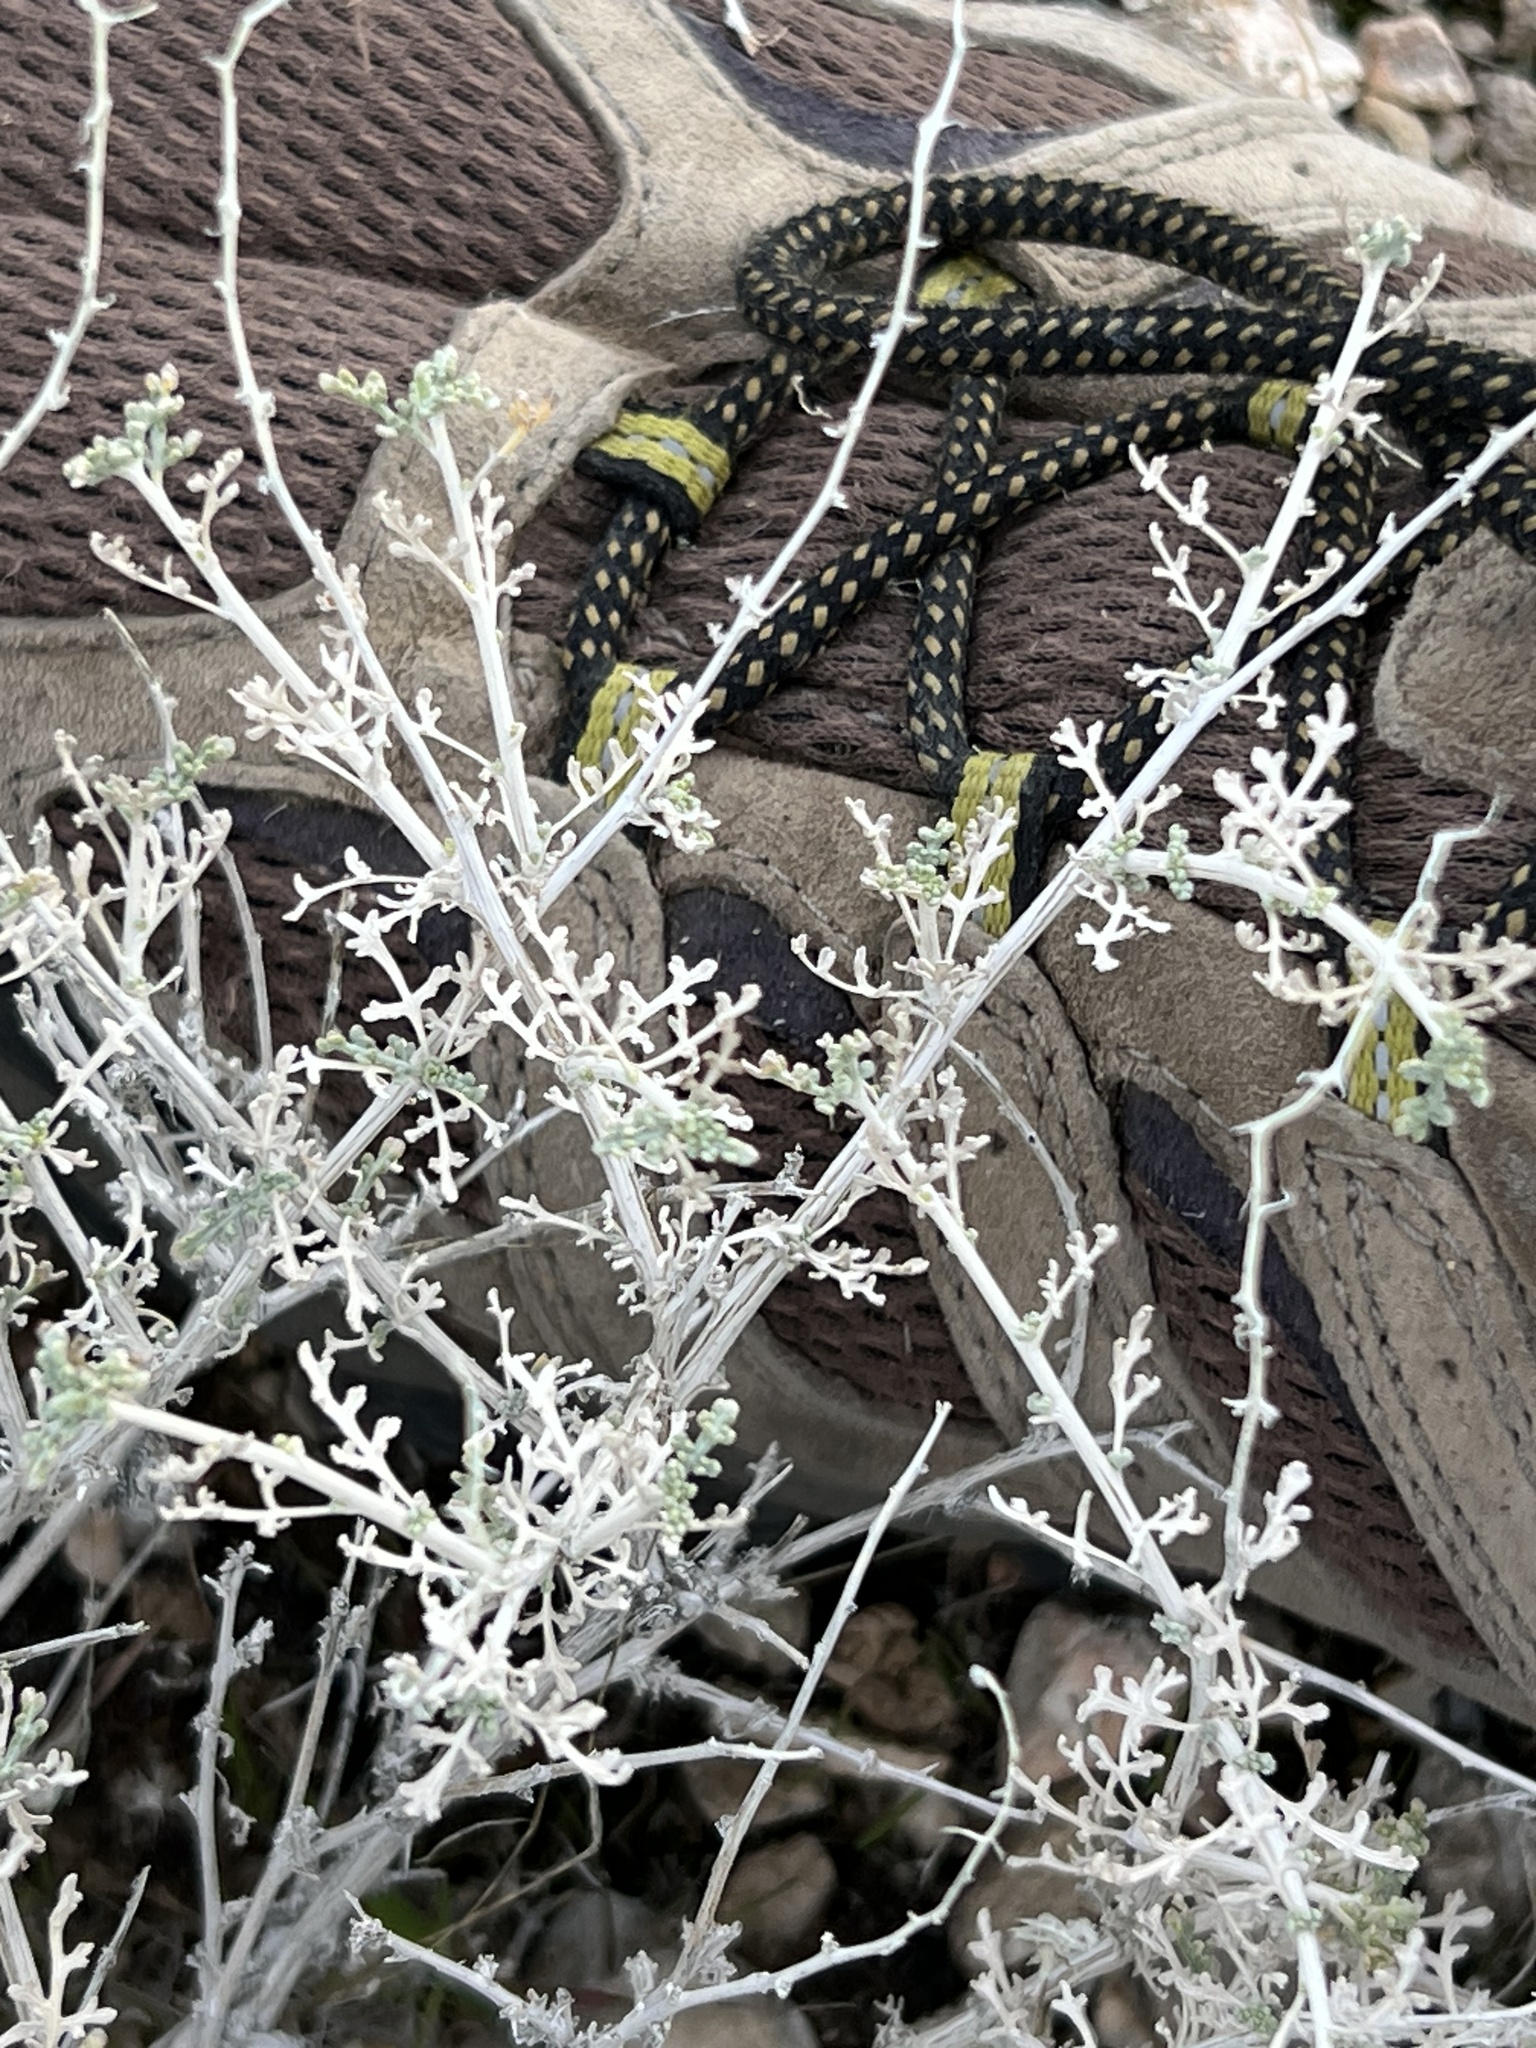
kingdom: Plantae
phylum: Tracheophyta
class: Magnoliopsida
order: Asterales
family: Asteraceae
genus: Ambrosia
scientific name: Ambrosia dumosa
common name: Bur-sage
